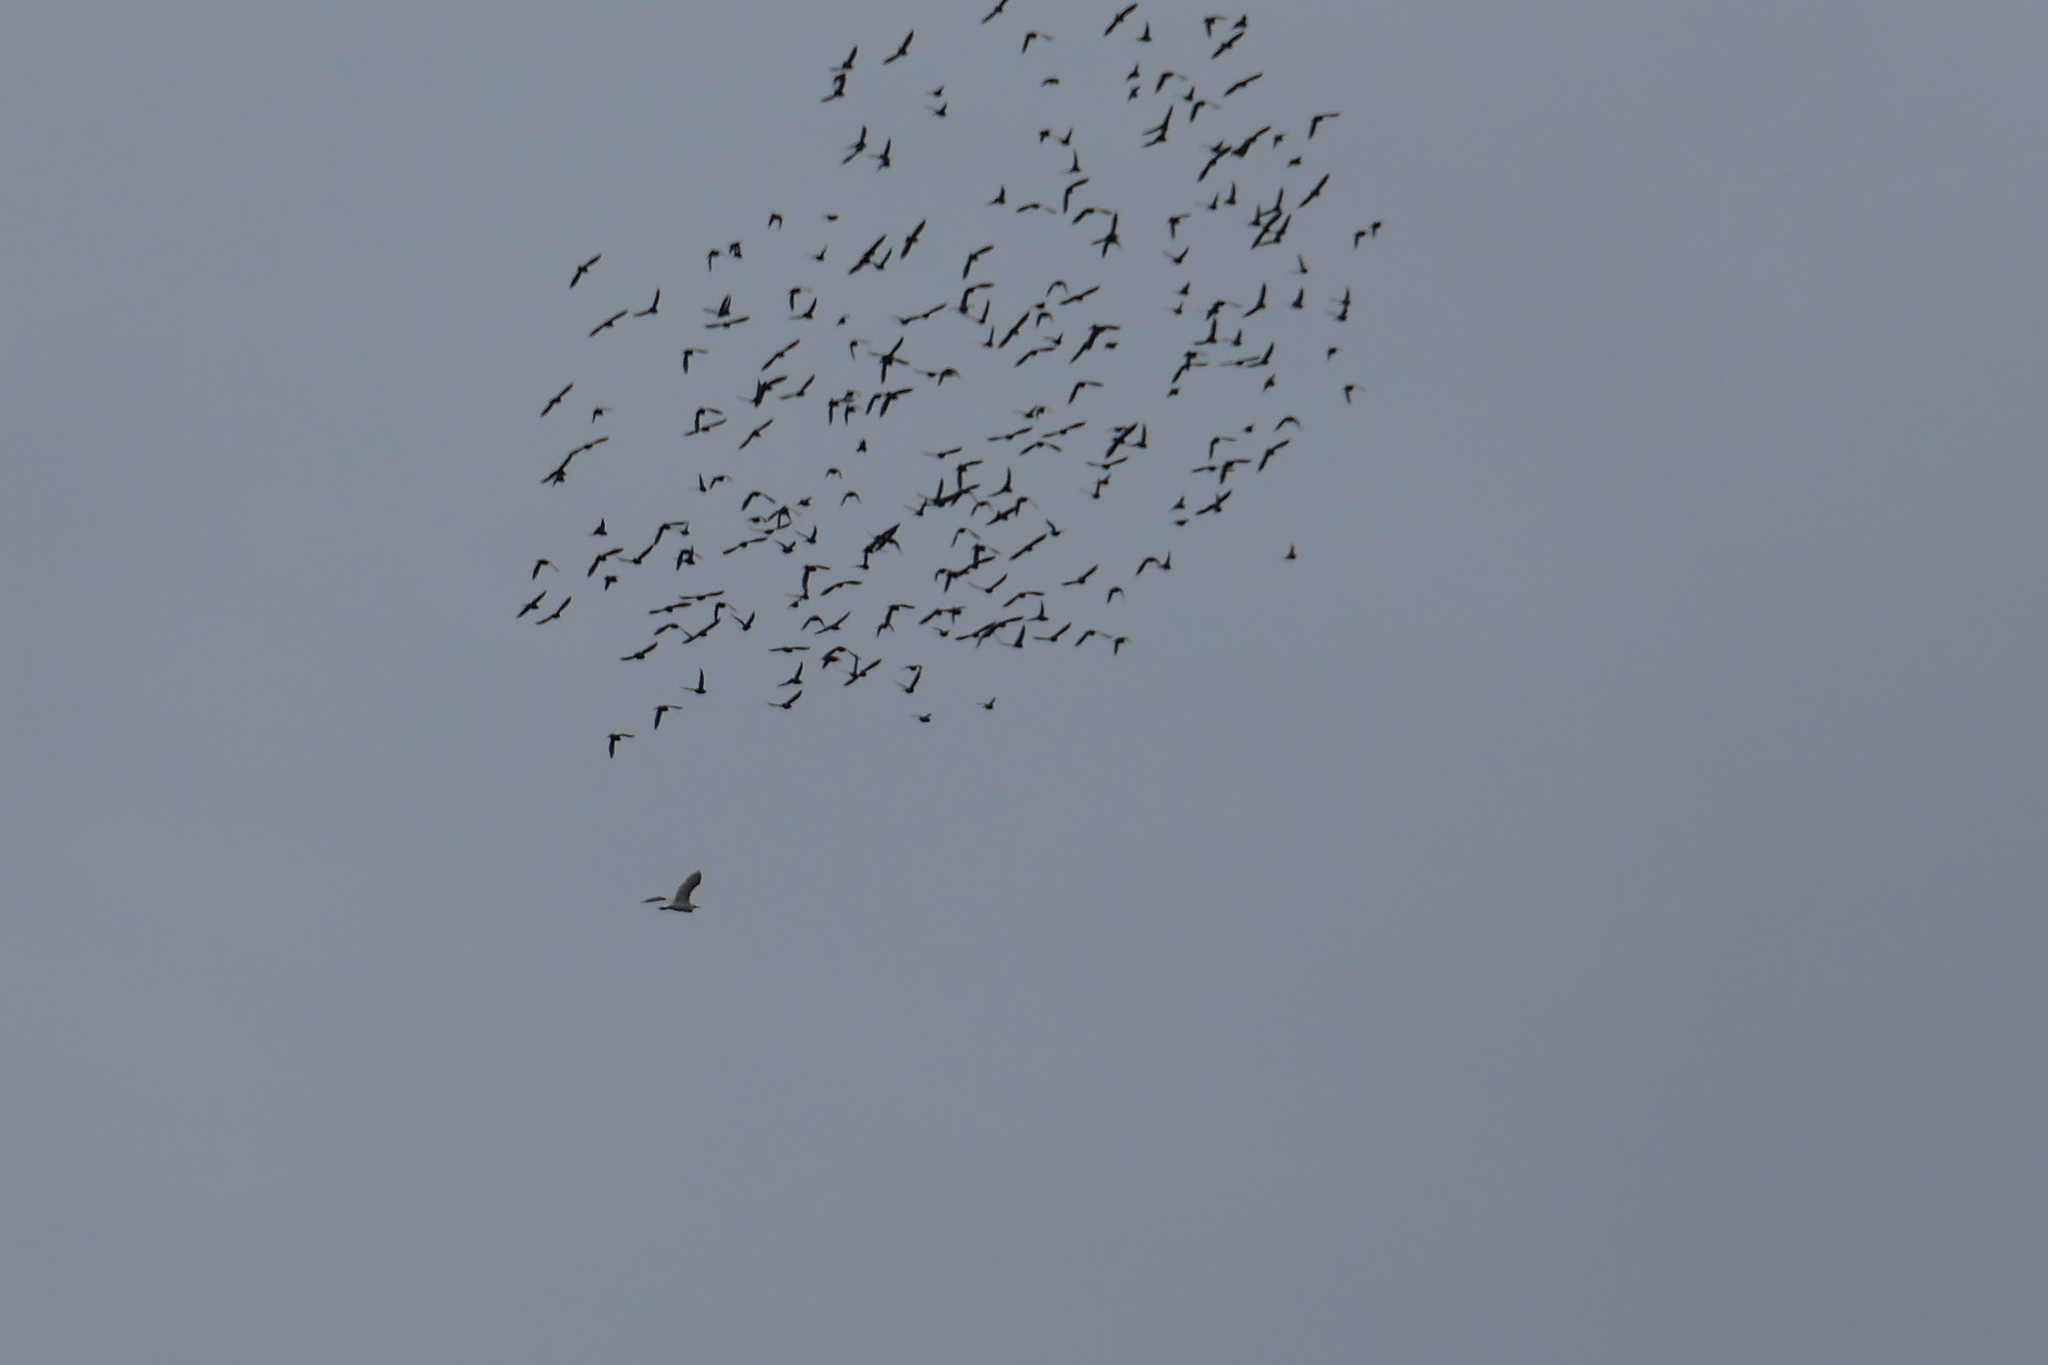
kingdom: Animalia
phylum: Chordata
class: Aves
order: Columbiformes
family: Columbidae
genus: Columba
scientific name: Columba livia
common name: Rock pigeon
